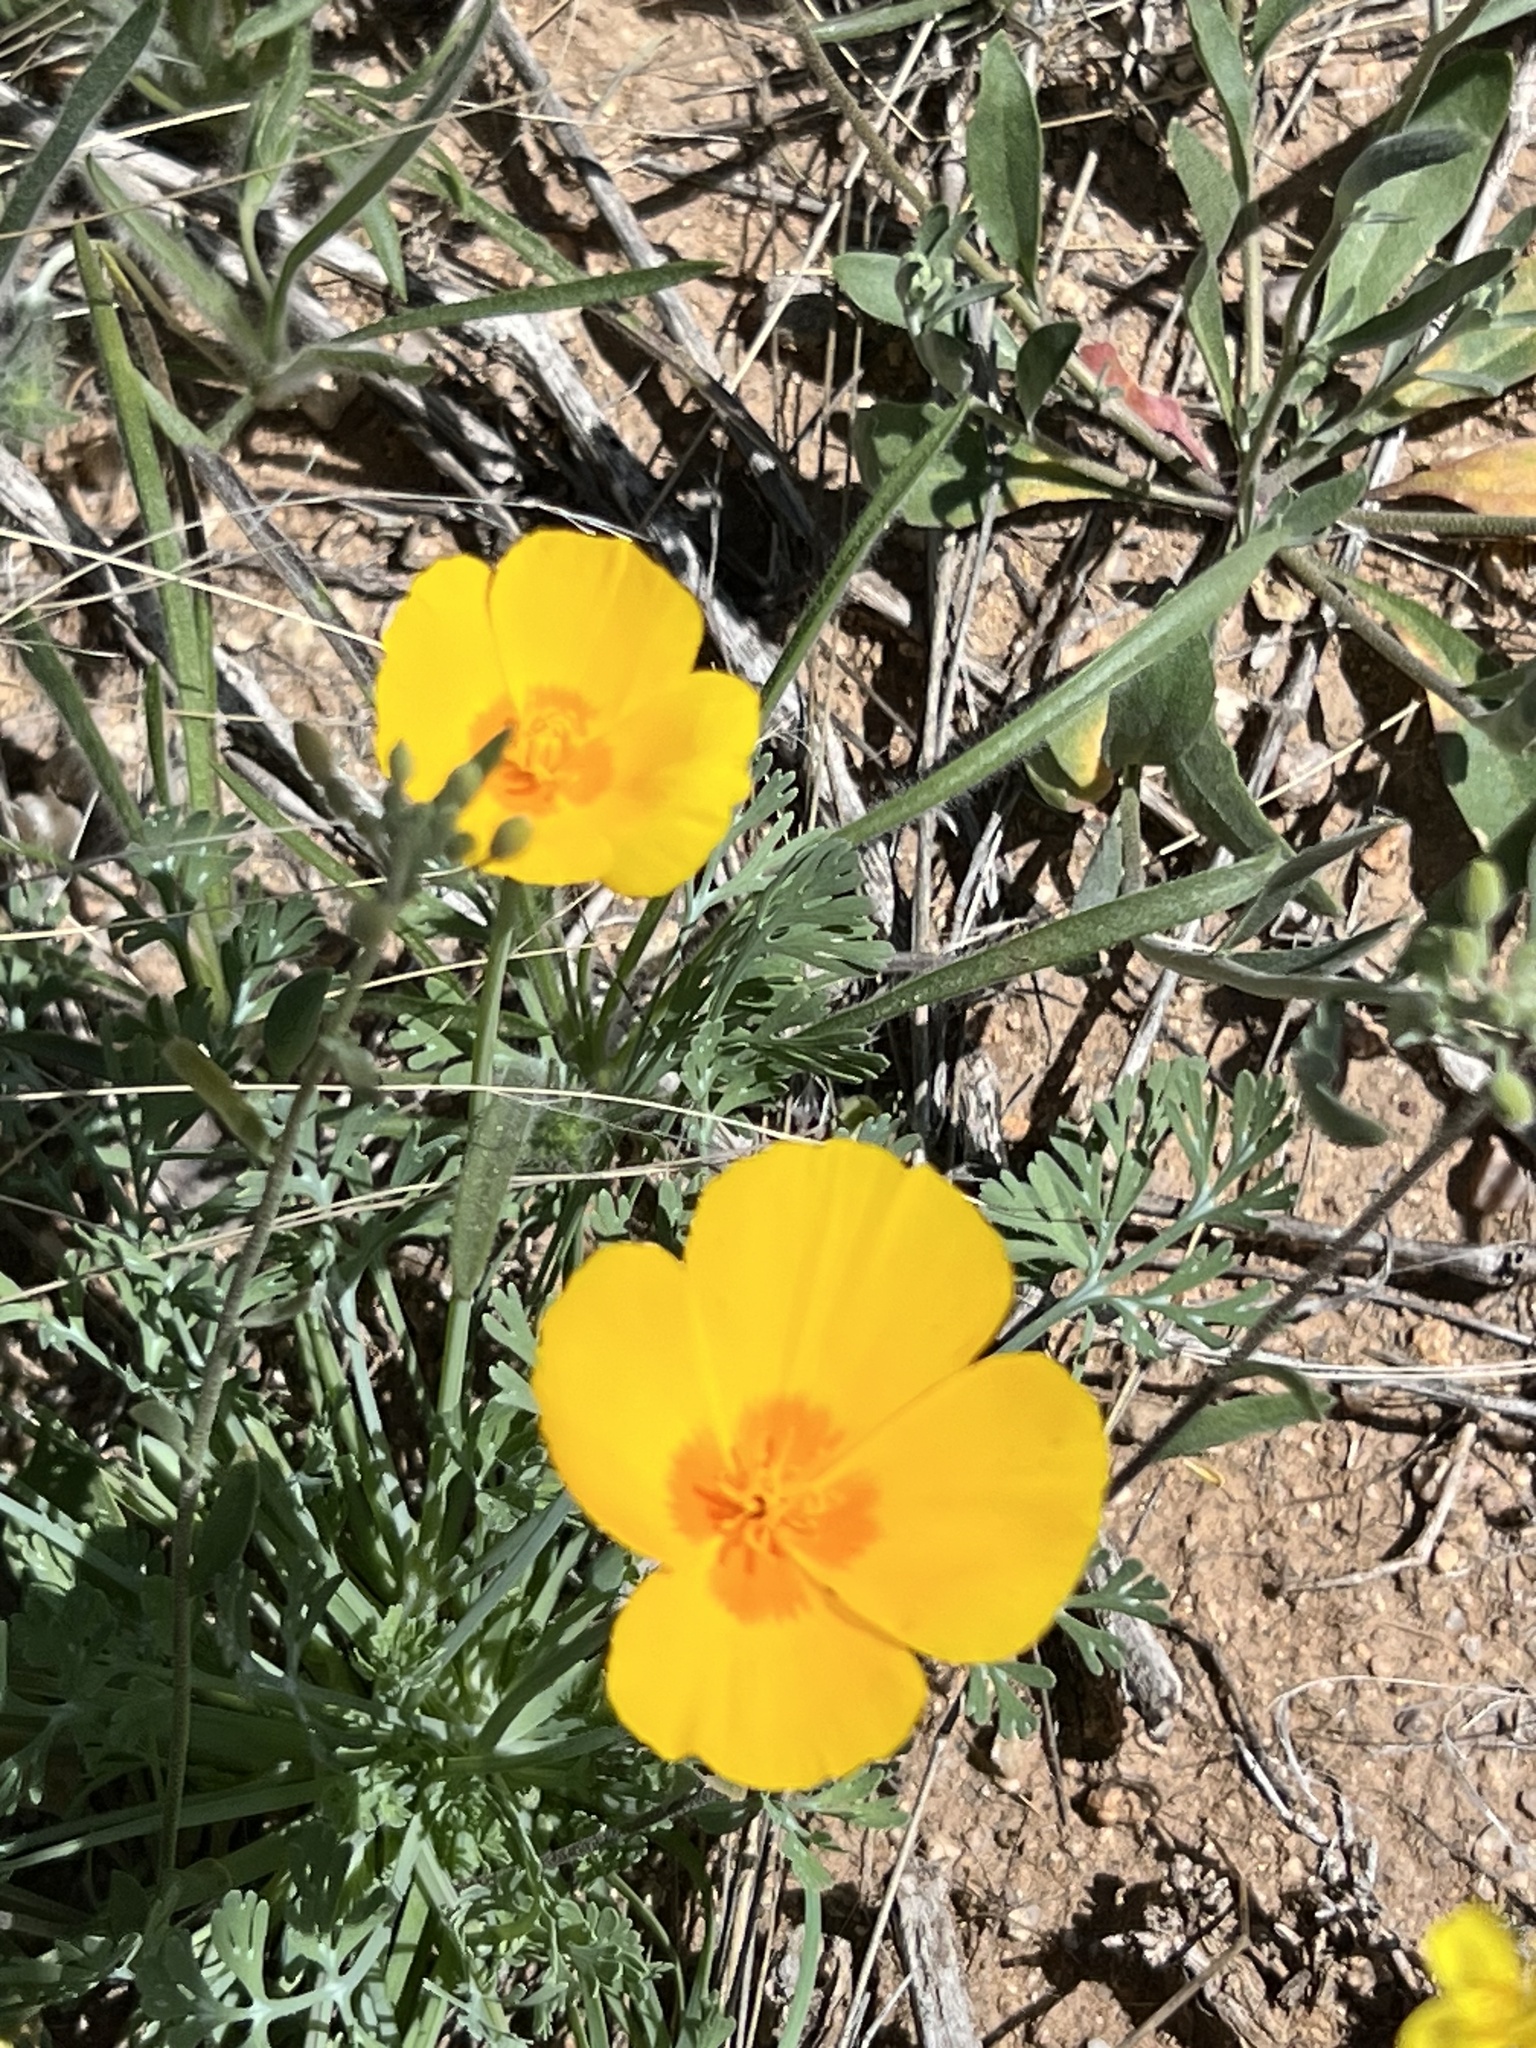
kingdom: Plantae
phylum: Tracheophyta
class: Magnoliopsida
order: Ranunculales
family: Papaveraceae
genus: Eschscholzia
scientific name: Eschscholzia californica
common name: California poppy
